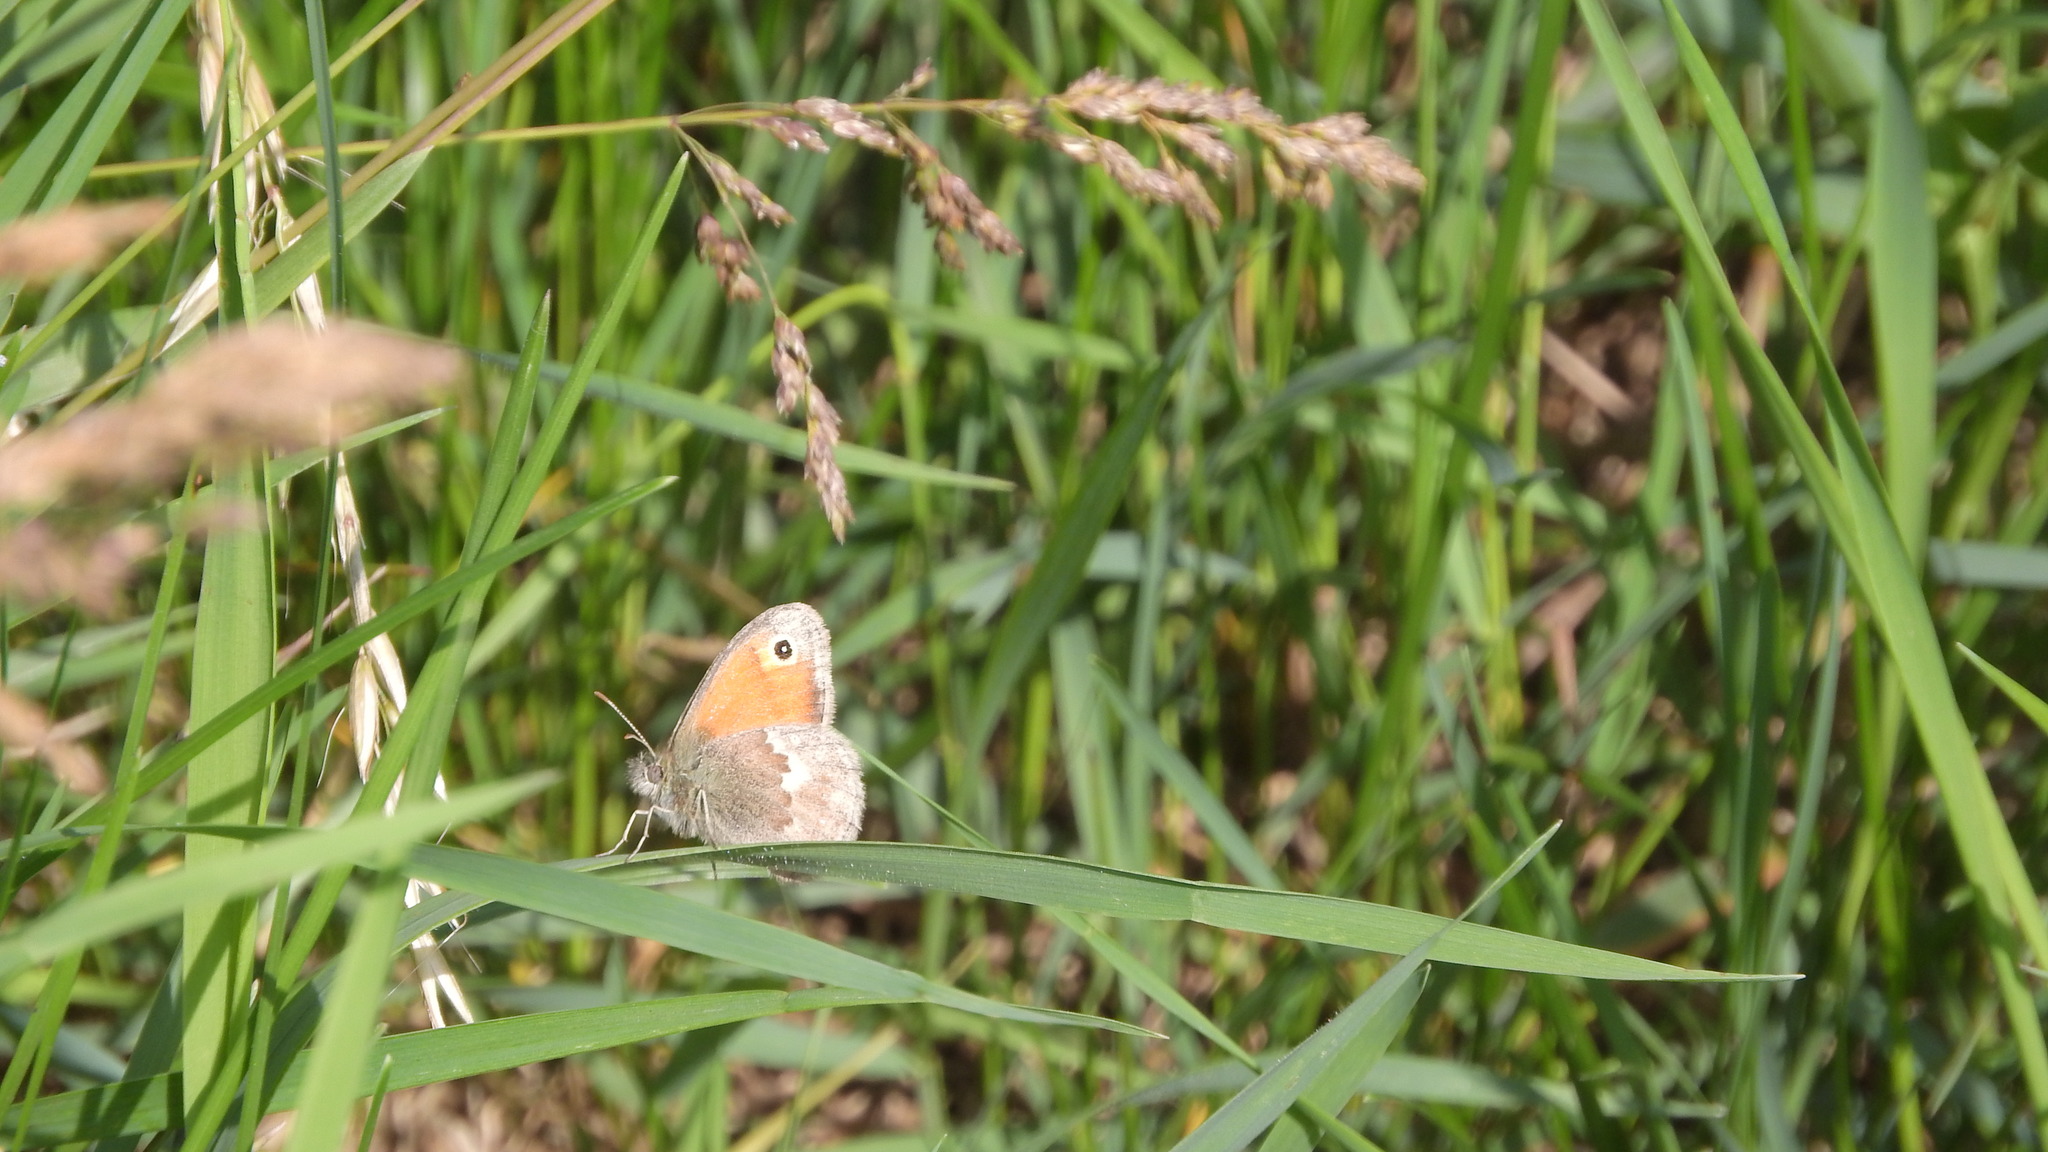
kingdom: Animalia
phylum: Arthropoda
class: Insecta
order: Lepidoptera
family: Nymphalidae
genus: Coenonympha
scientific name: Coenonympha pamphilus
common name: Small heath
